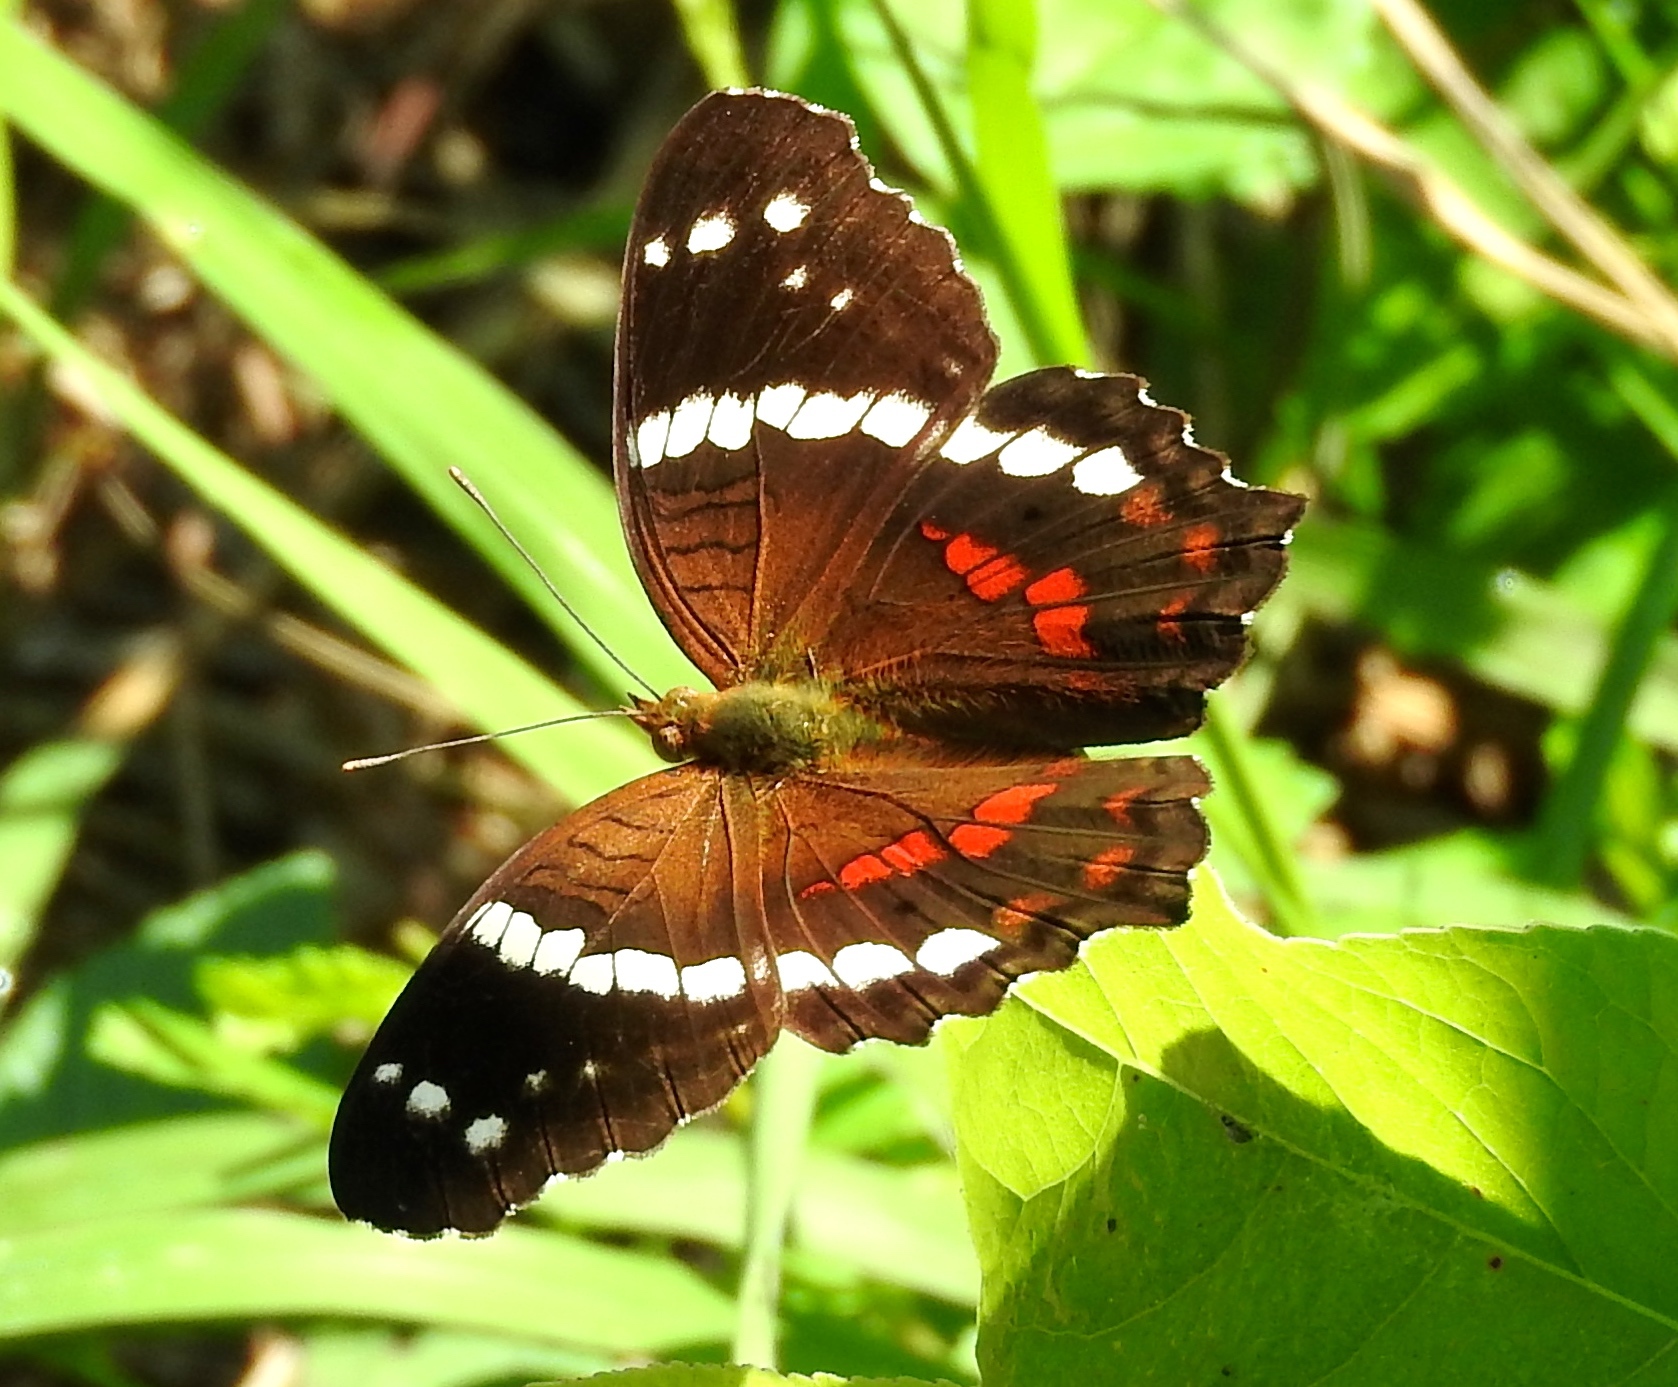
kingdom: Animalia
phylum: Arthropoda
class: Insecta
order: Lepidoptera
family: Nymphalidae
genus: Anartia
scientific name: Anartia fatima
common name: Banded peacock
